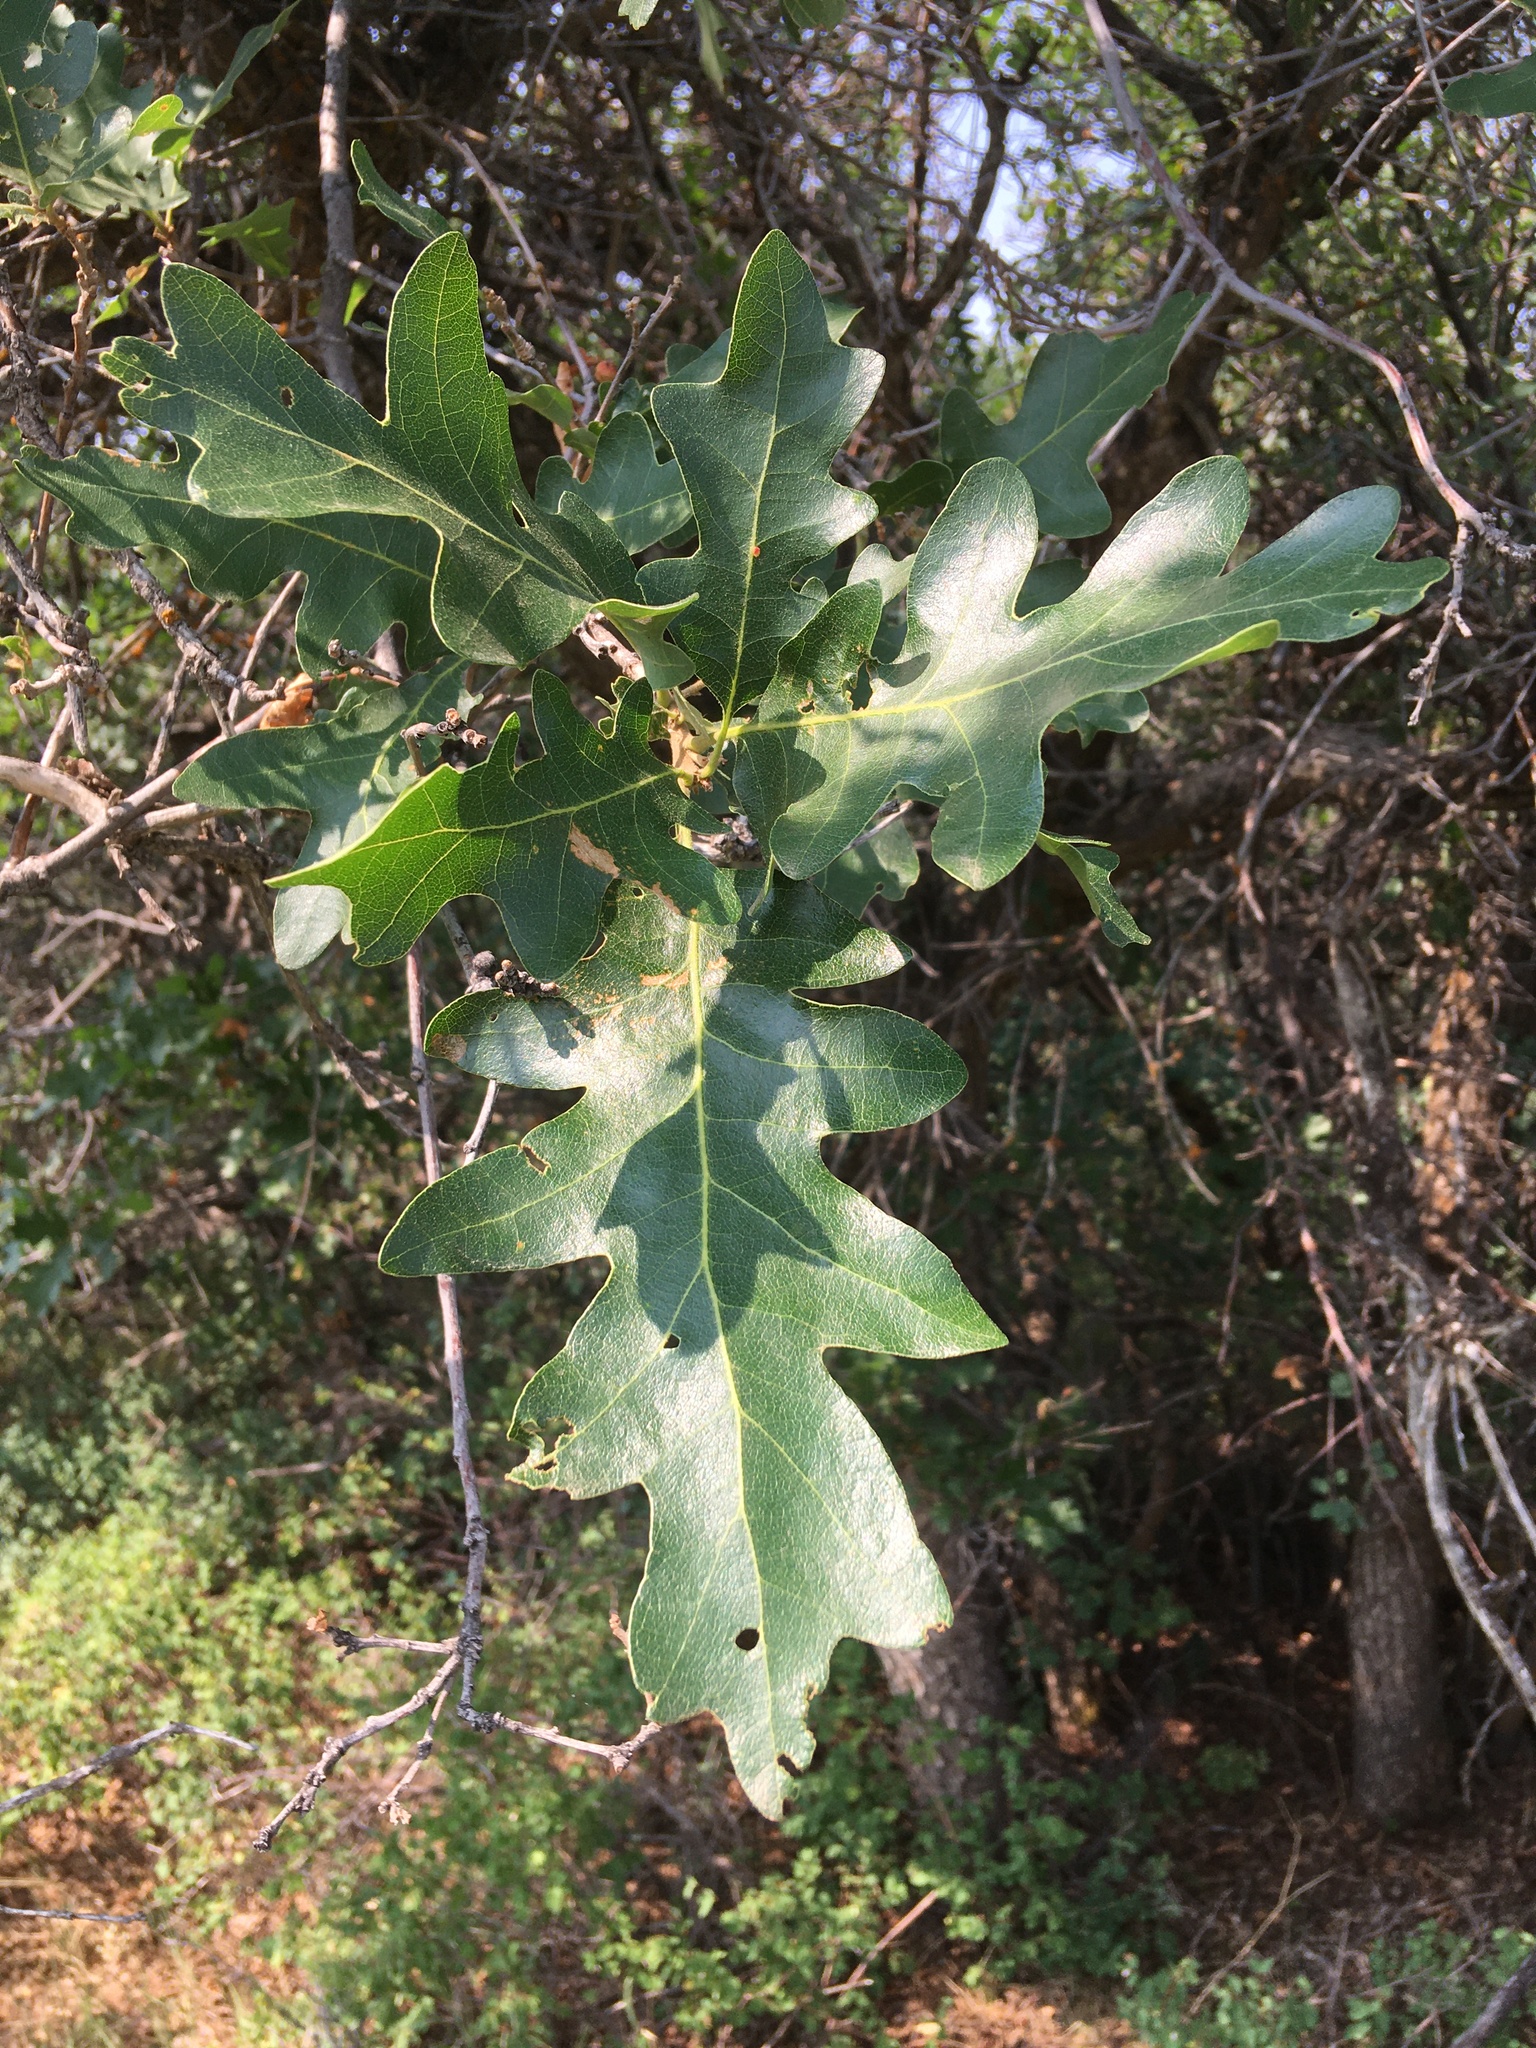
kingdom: Plantae
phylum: Tracheophyta
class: Magnoliopsida
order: Fagales
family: Fagaceae
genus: Quercus
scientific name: Quercus gambelii
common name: Gambel oak
